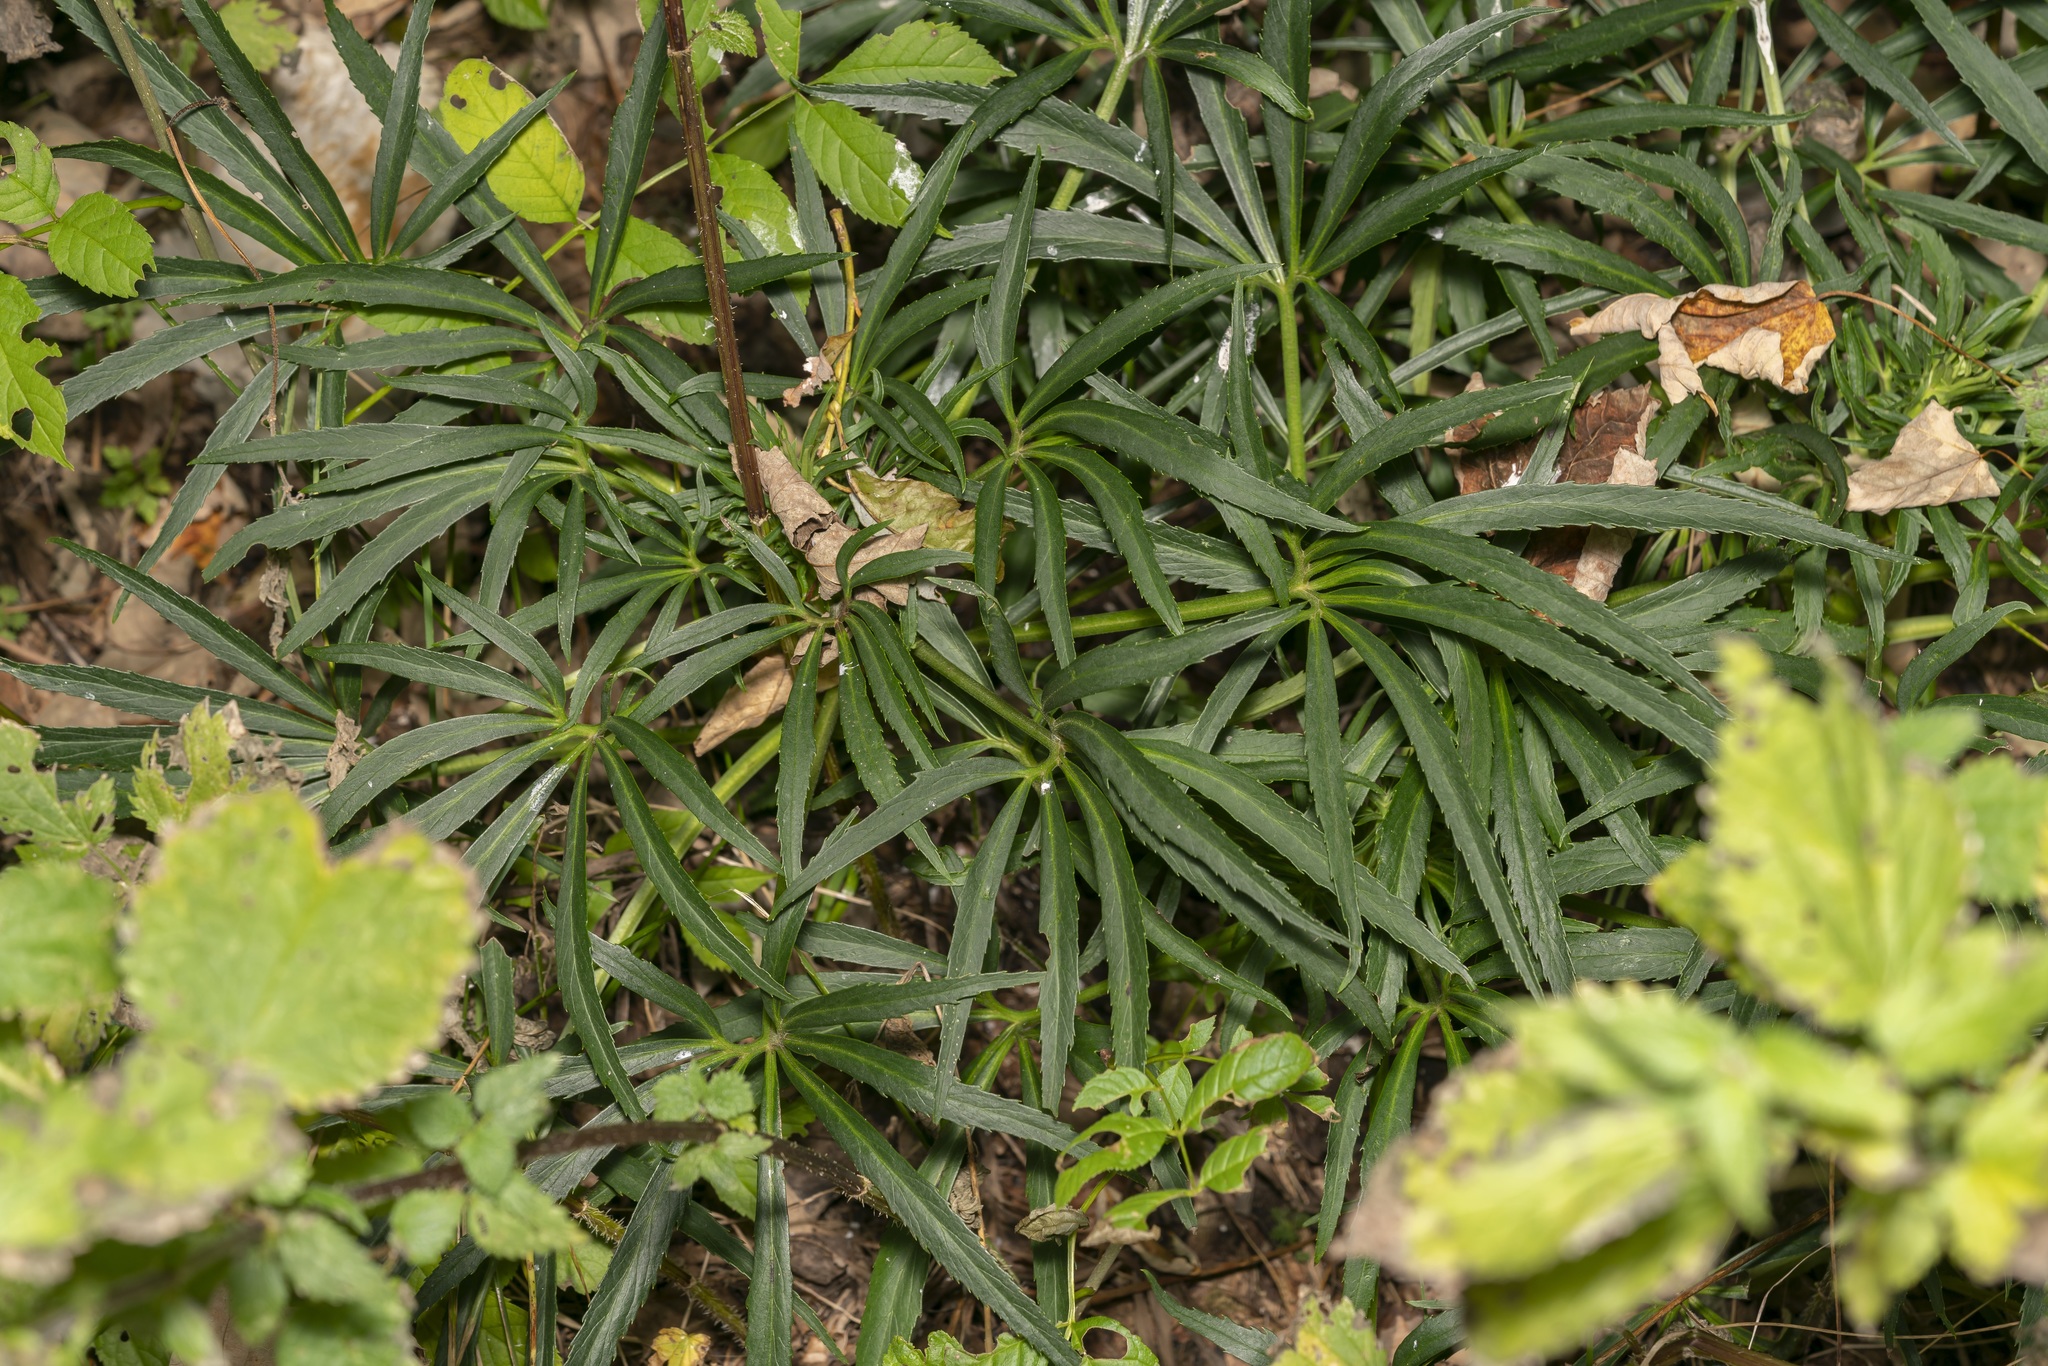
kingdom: Plantae
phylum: Tracheophyta
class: Magnoliopsida
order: Ranunculales
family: Ranunculaceae
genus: Helleborus
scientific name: Helleborus foetidus
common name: Stinking hellebore
